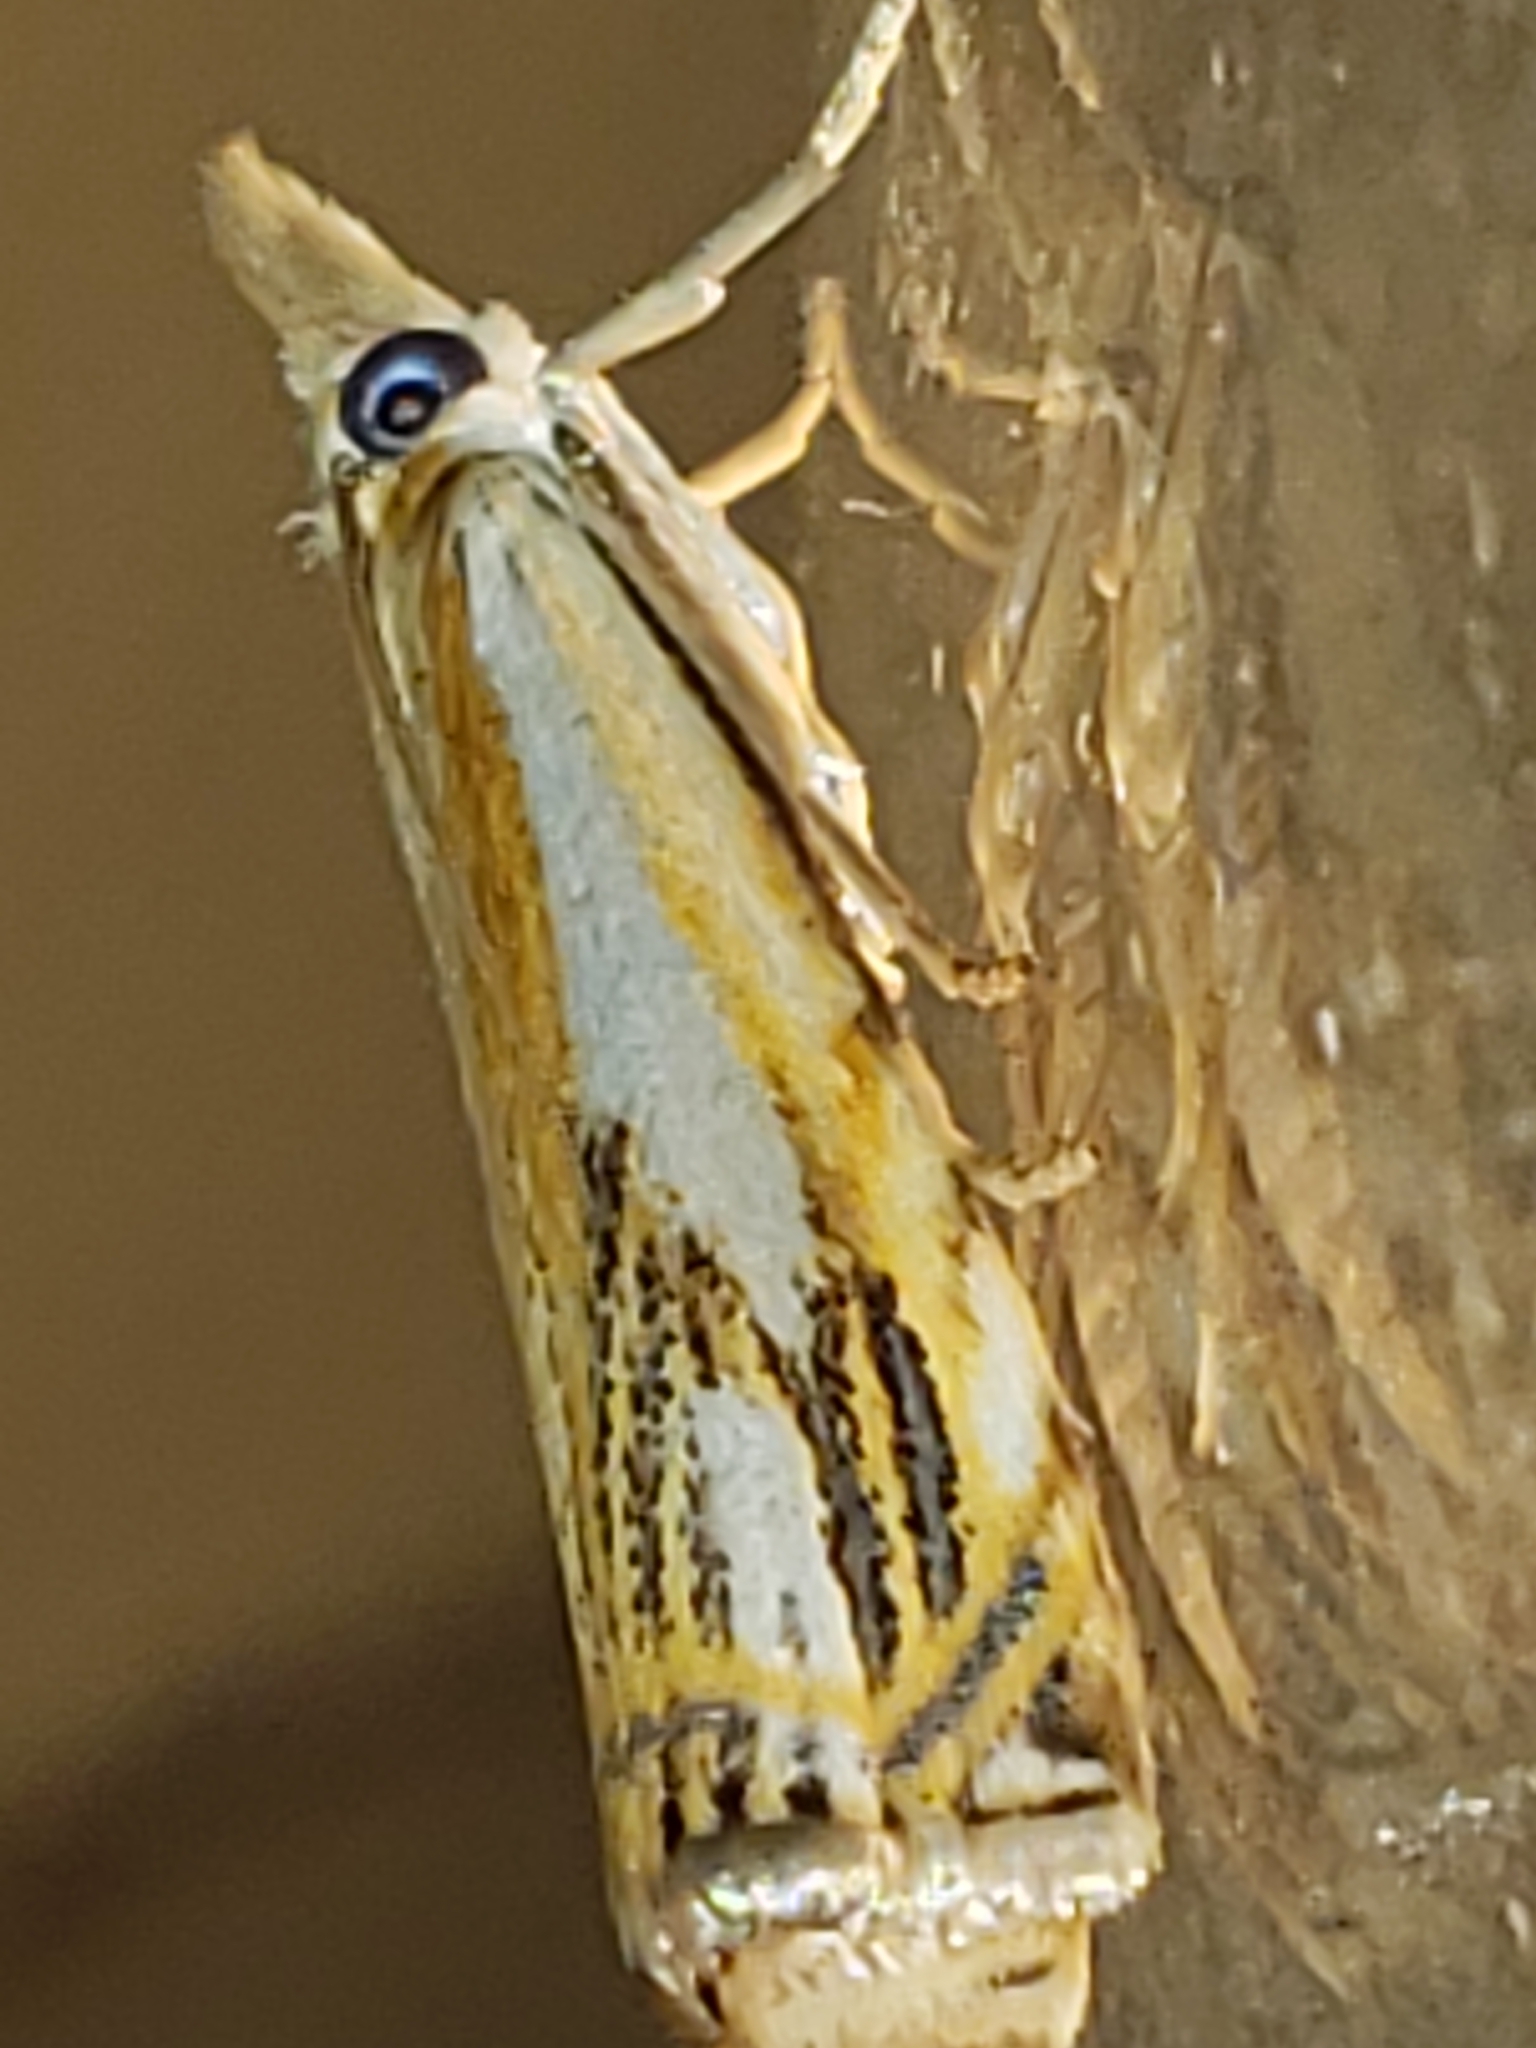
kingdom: Animalia
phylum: Arthropoda
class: Insecta
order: Lepidoptera
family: Crambidae
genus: Crambus
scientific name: Crambus agitatellus
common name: Double-banded grass-veneer
